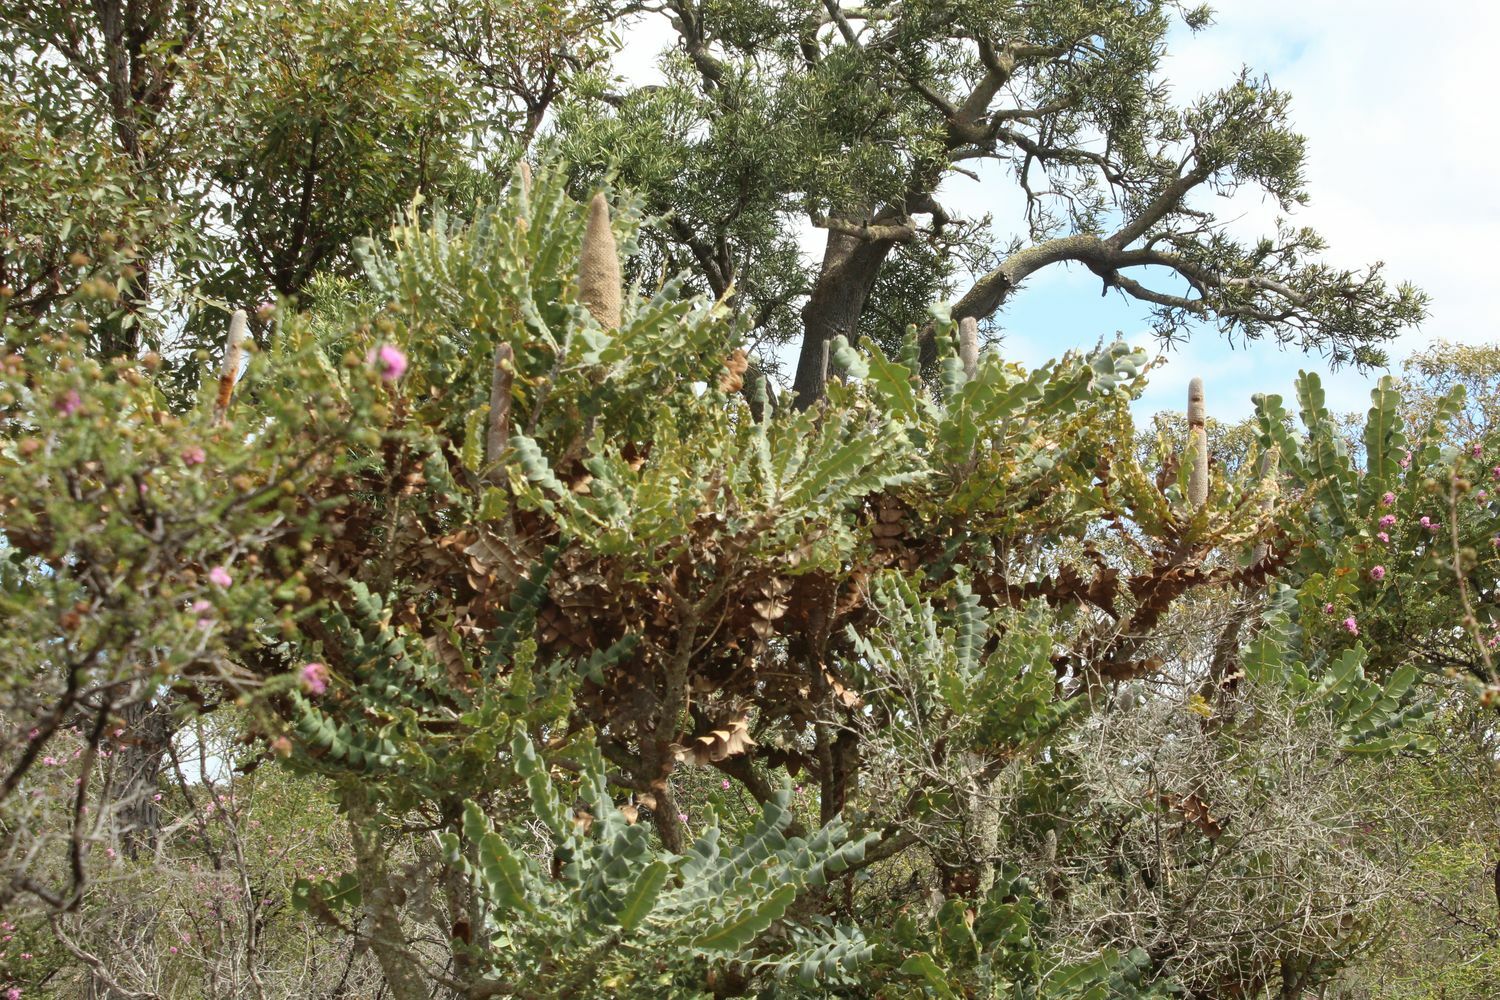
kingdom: Plantae
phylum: Tracheophyta
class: Magnoliopsida
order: Proteales
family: Proteaceae
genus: Banksia
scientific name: Banksia grandis
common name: Giant banksia
